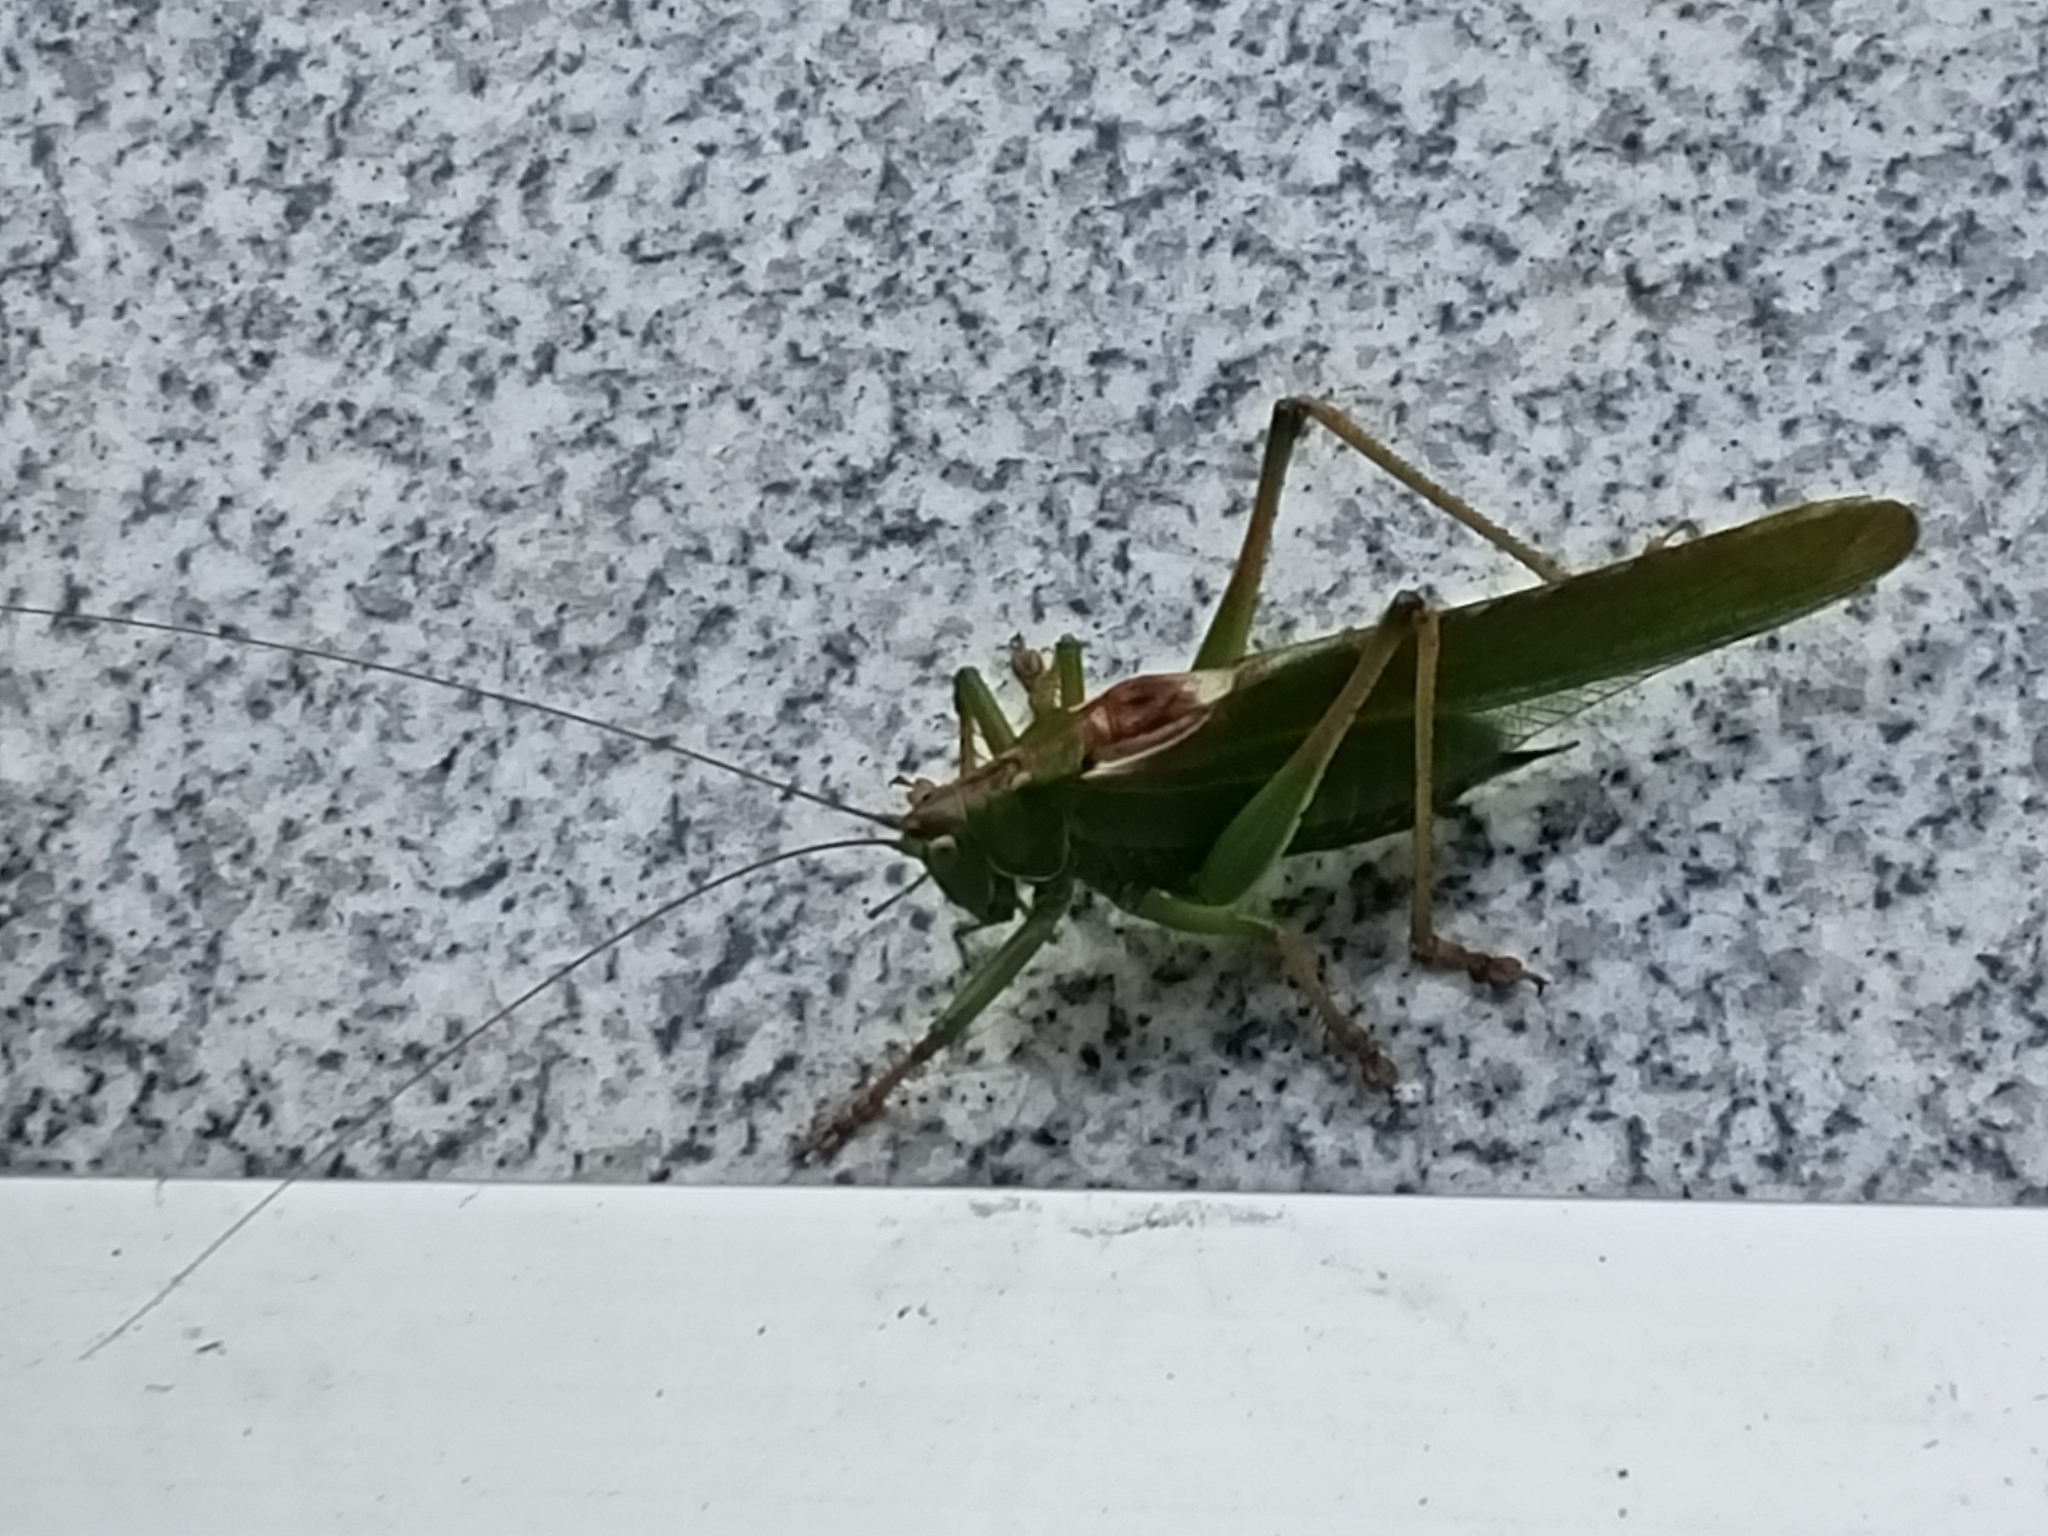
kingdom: Animalia
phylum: Arthropoda
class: Insecta
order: Orthoptera
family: Tettigoniidae
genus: Tettigonia
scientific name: Tettigonia viridissima
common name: Great green bush-cricket
